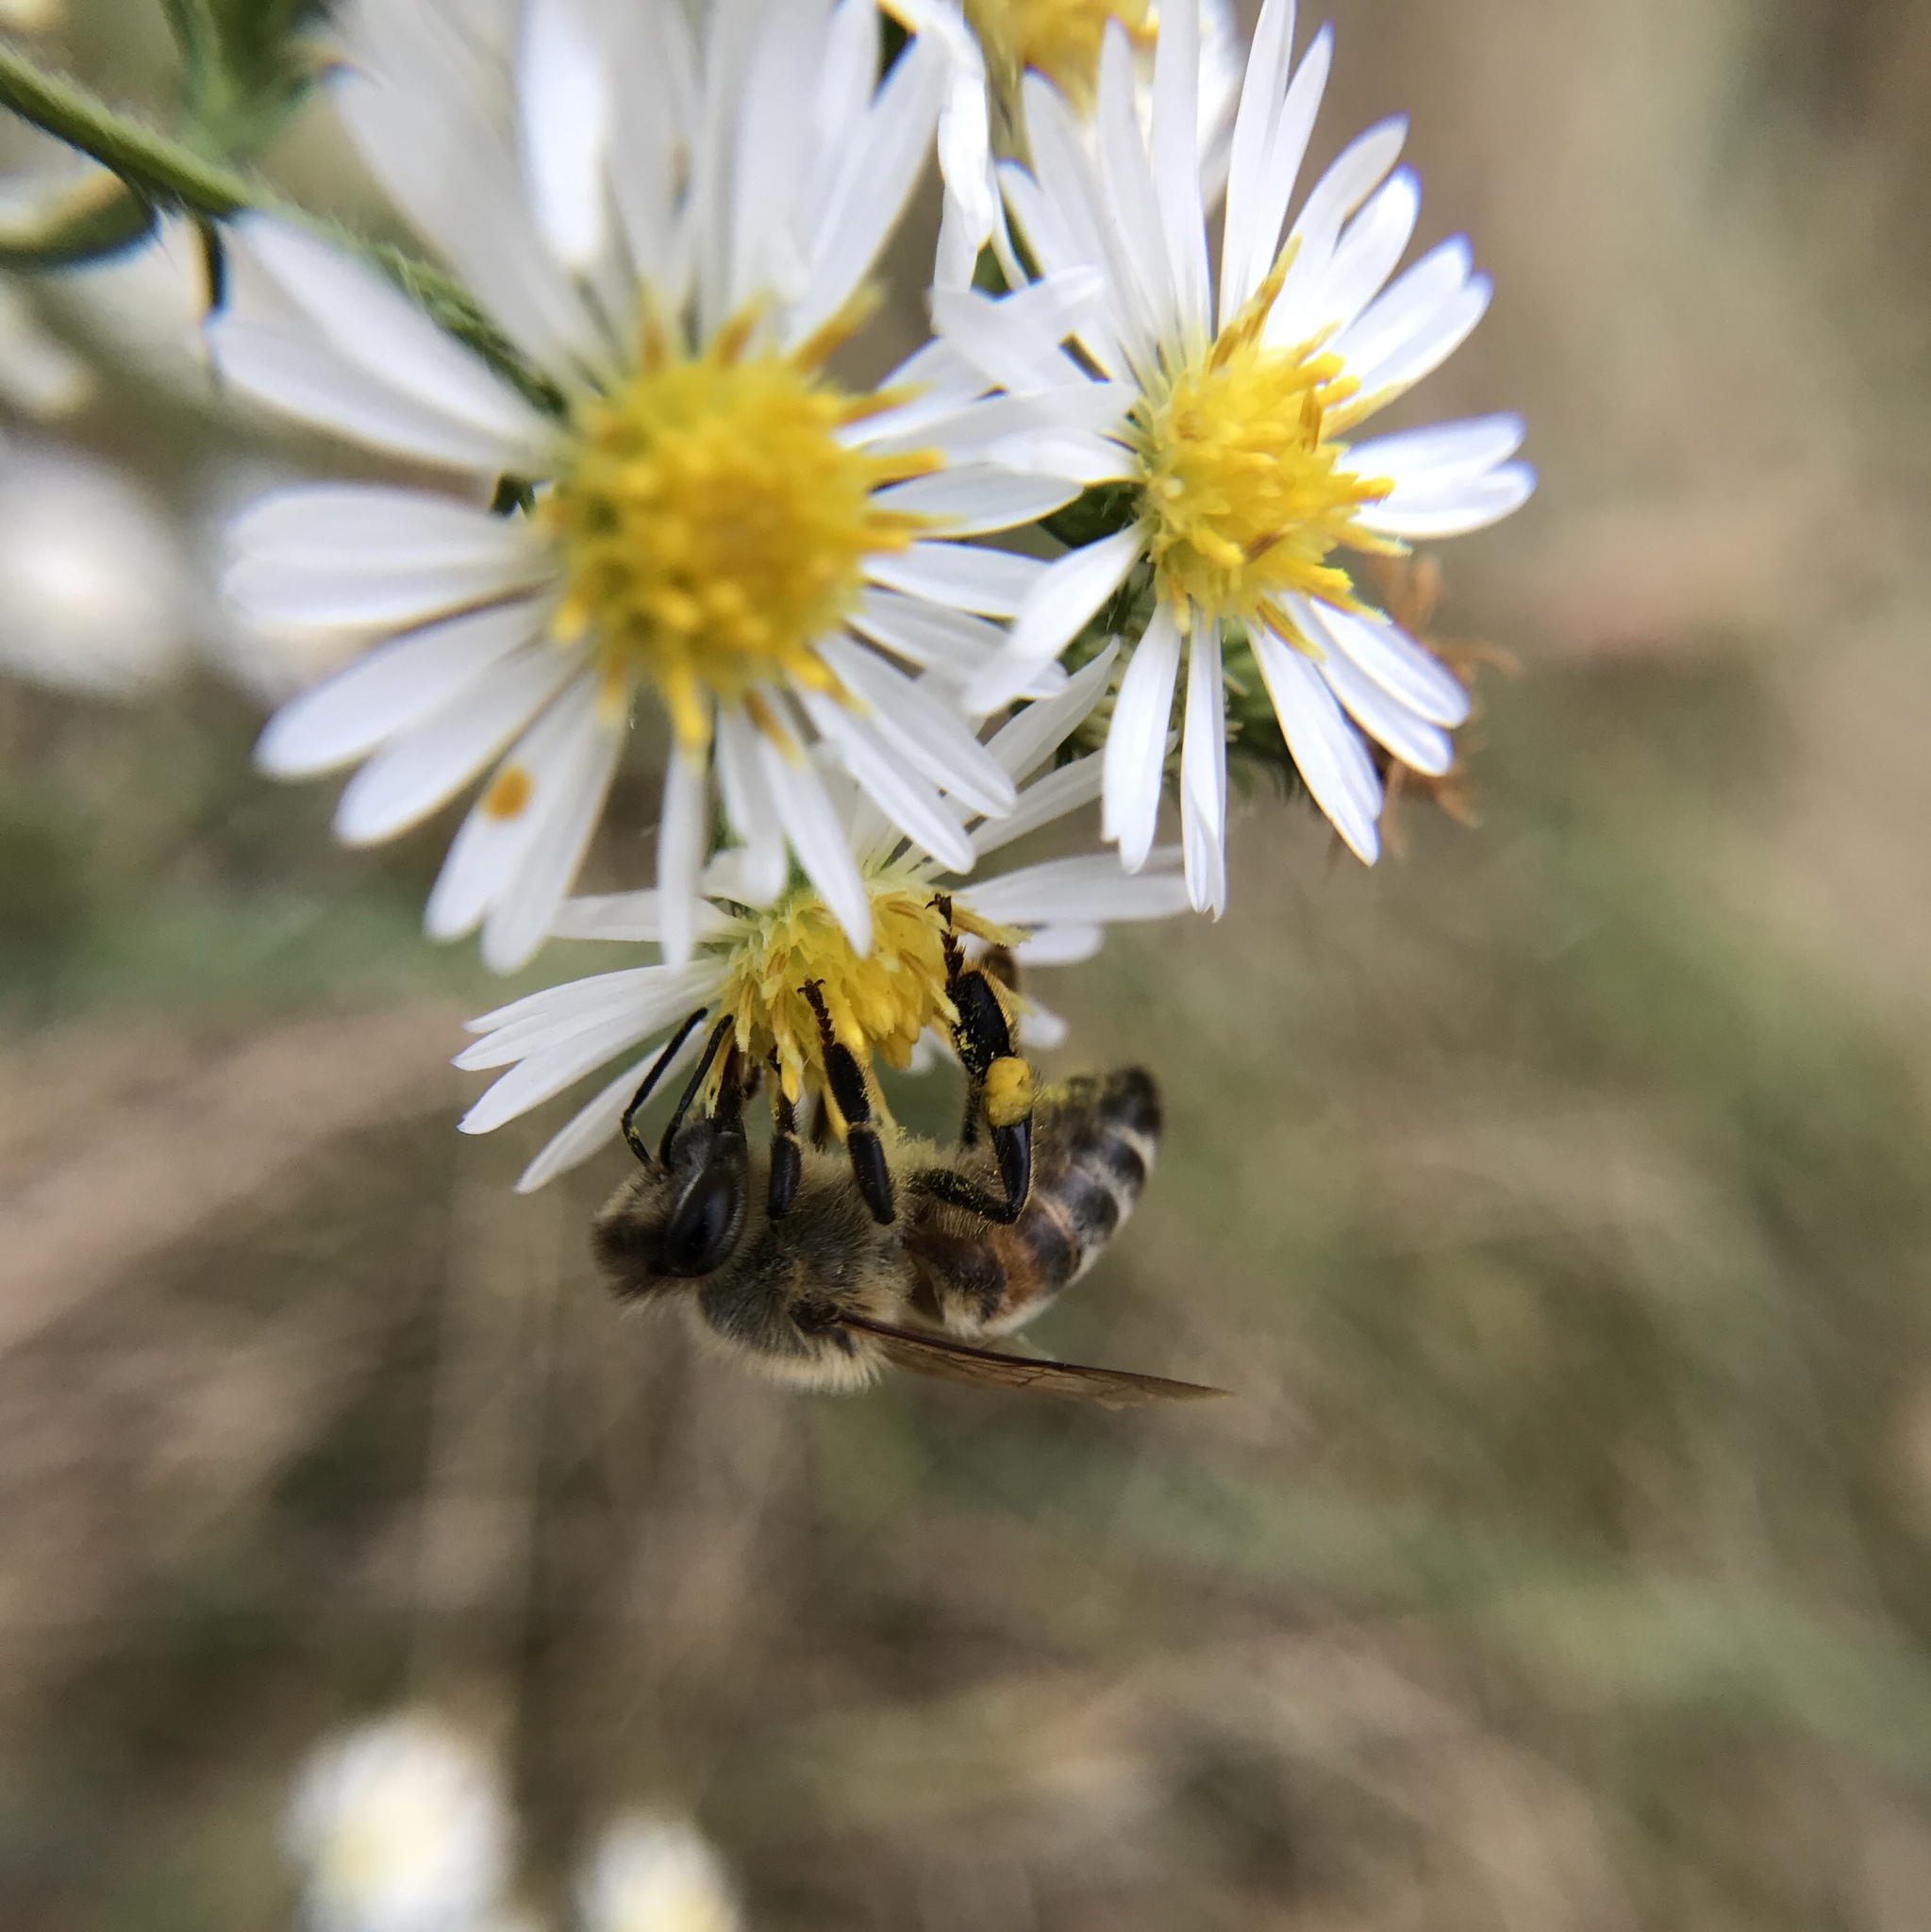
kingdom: Animalia
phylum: Arthropoda
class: Insecta
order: Hymenoptera
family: Apidae
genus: Apis
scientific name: Apis mellifera
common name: Honey bee
